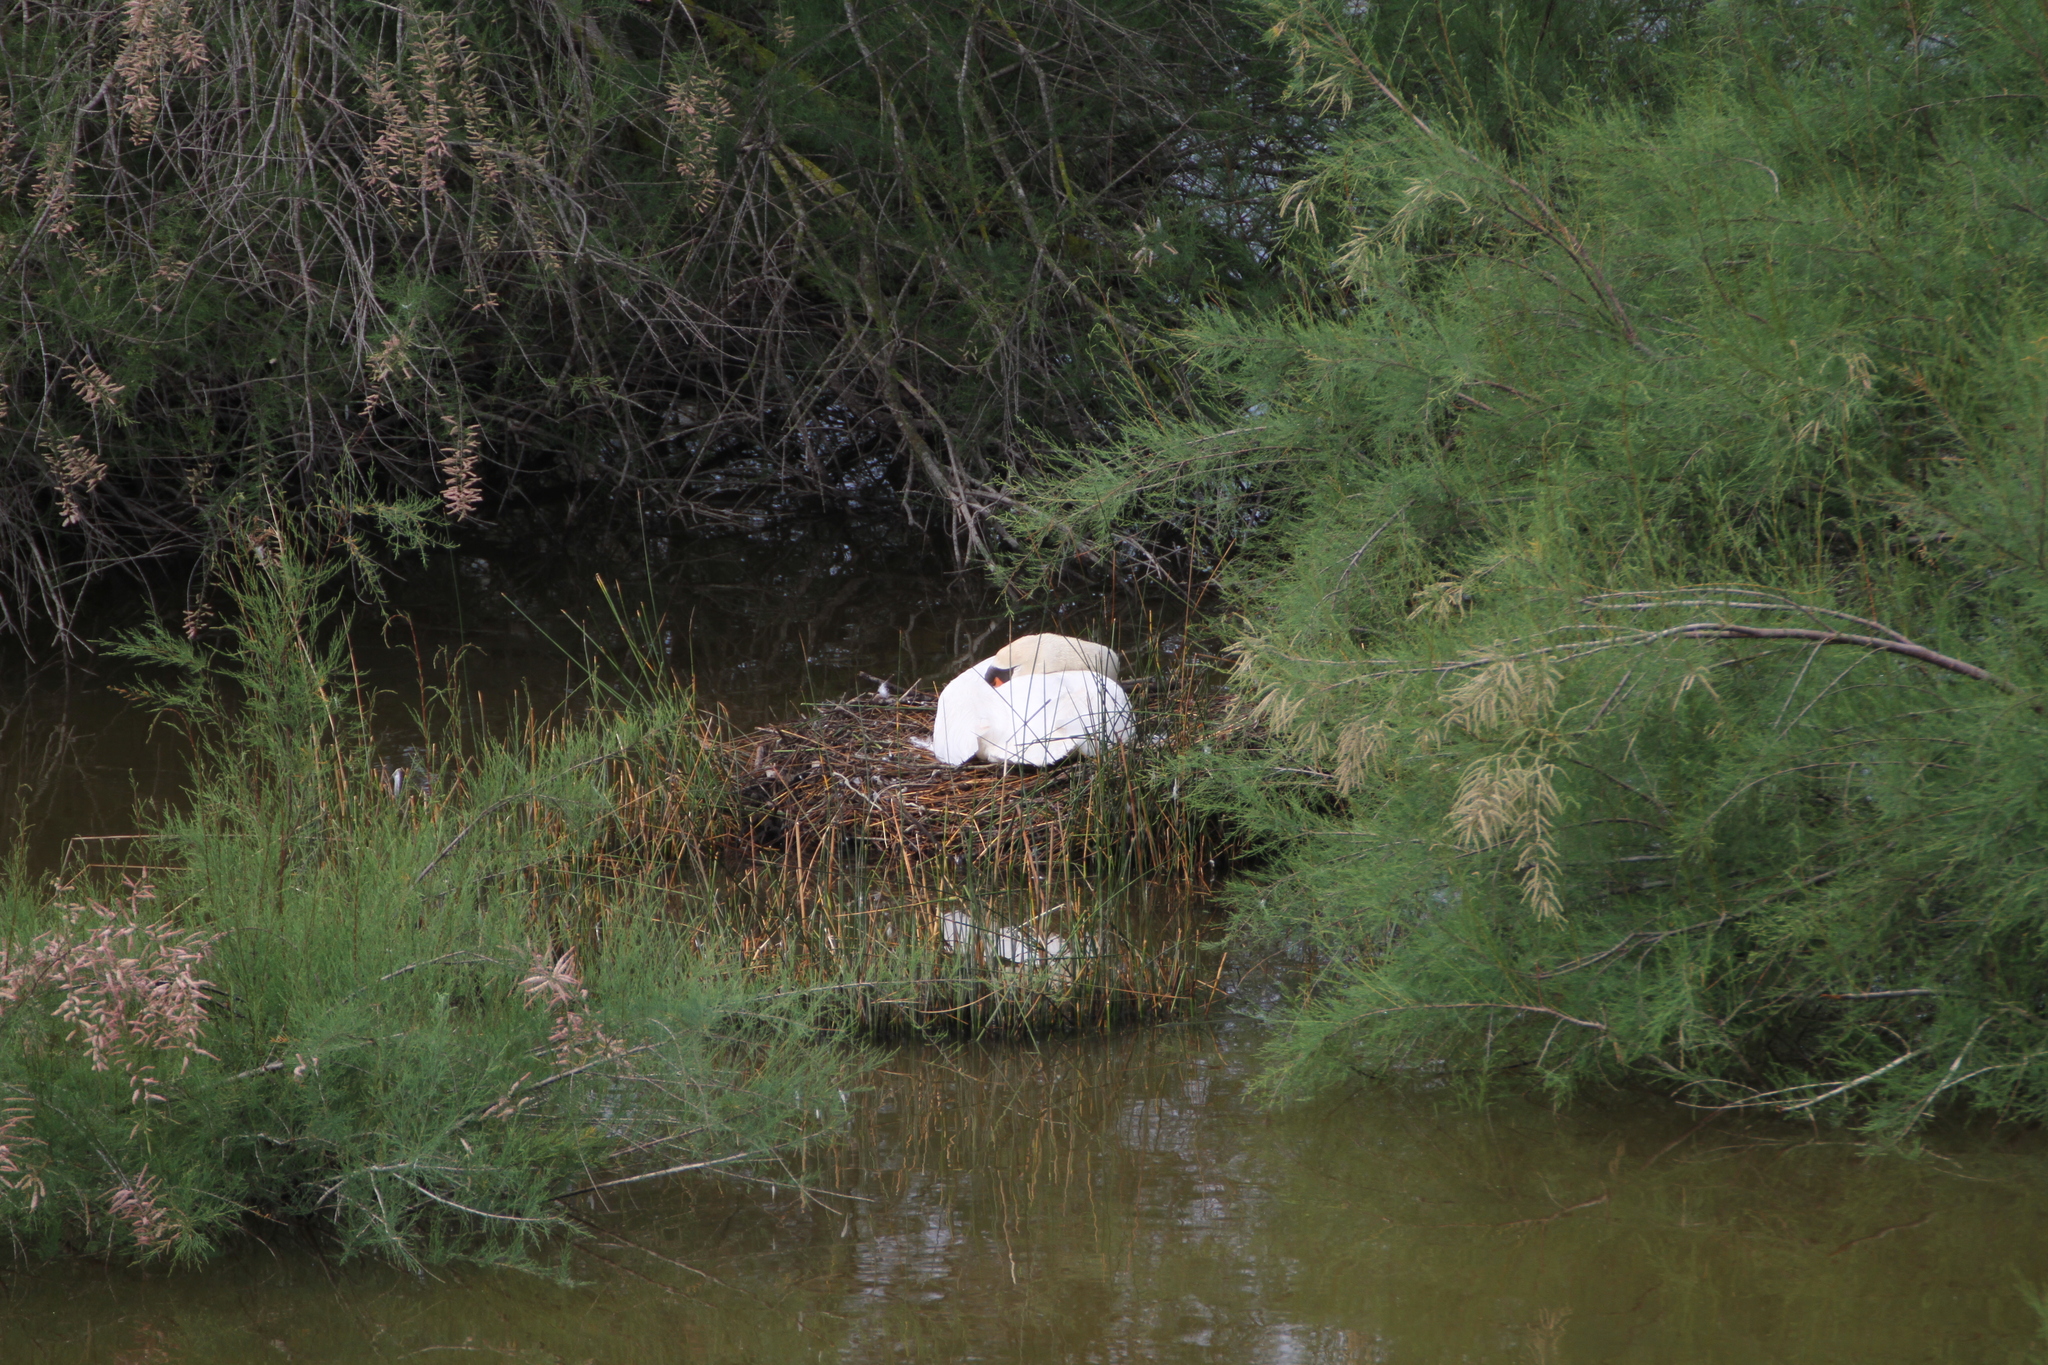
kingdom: Animalia
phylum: Chordata
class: Aves
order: Anseriformes
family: Anatidae
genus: Cygnus
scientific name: Cygnus olor
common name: Mute swan
